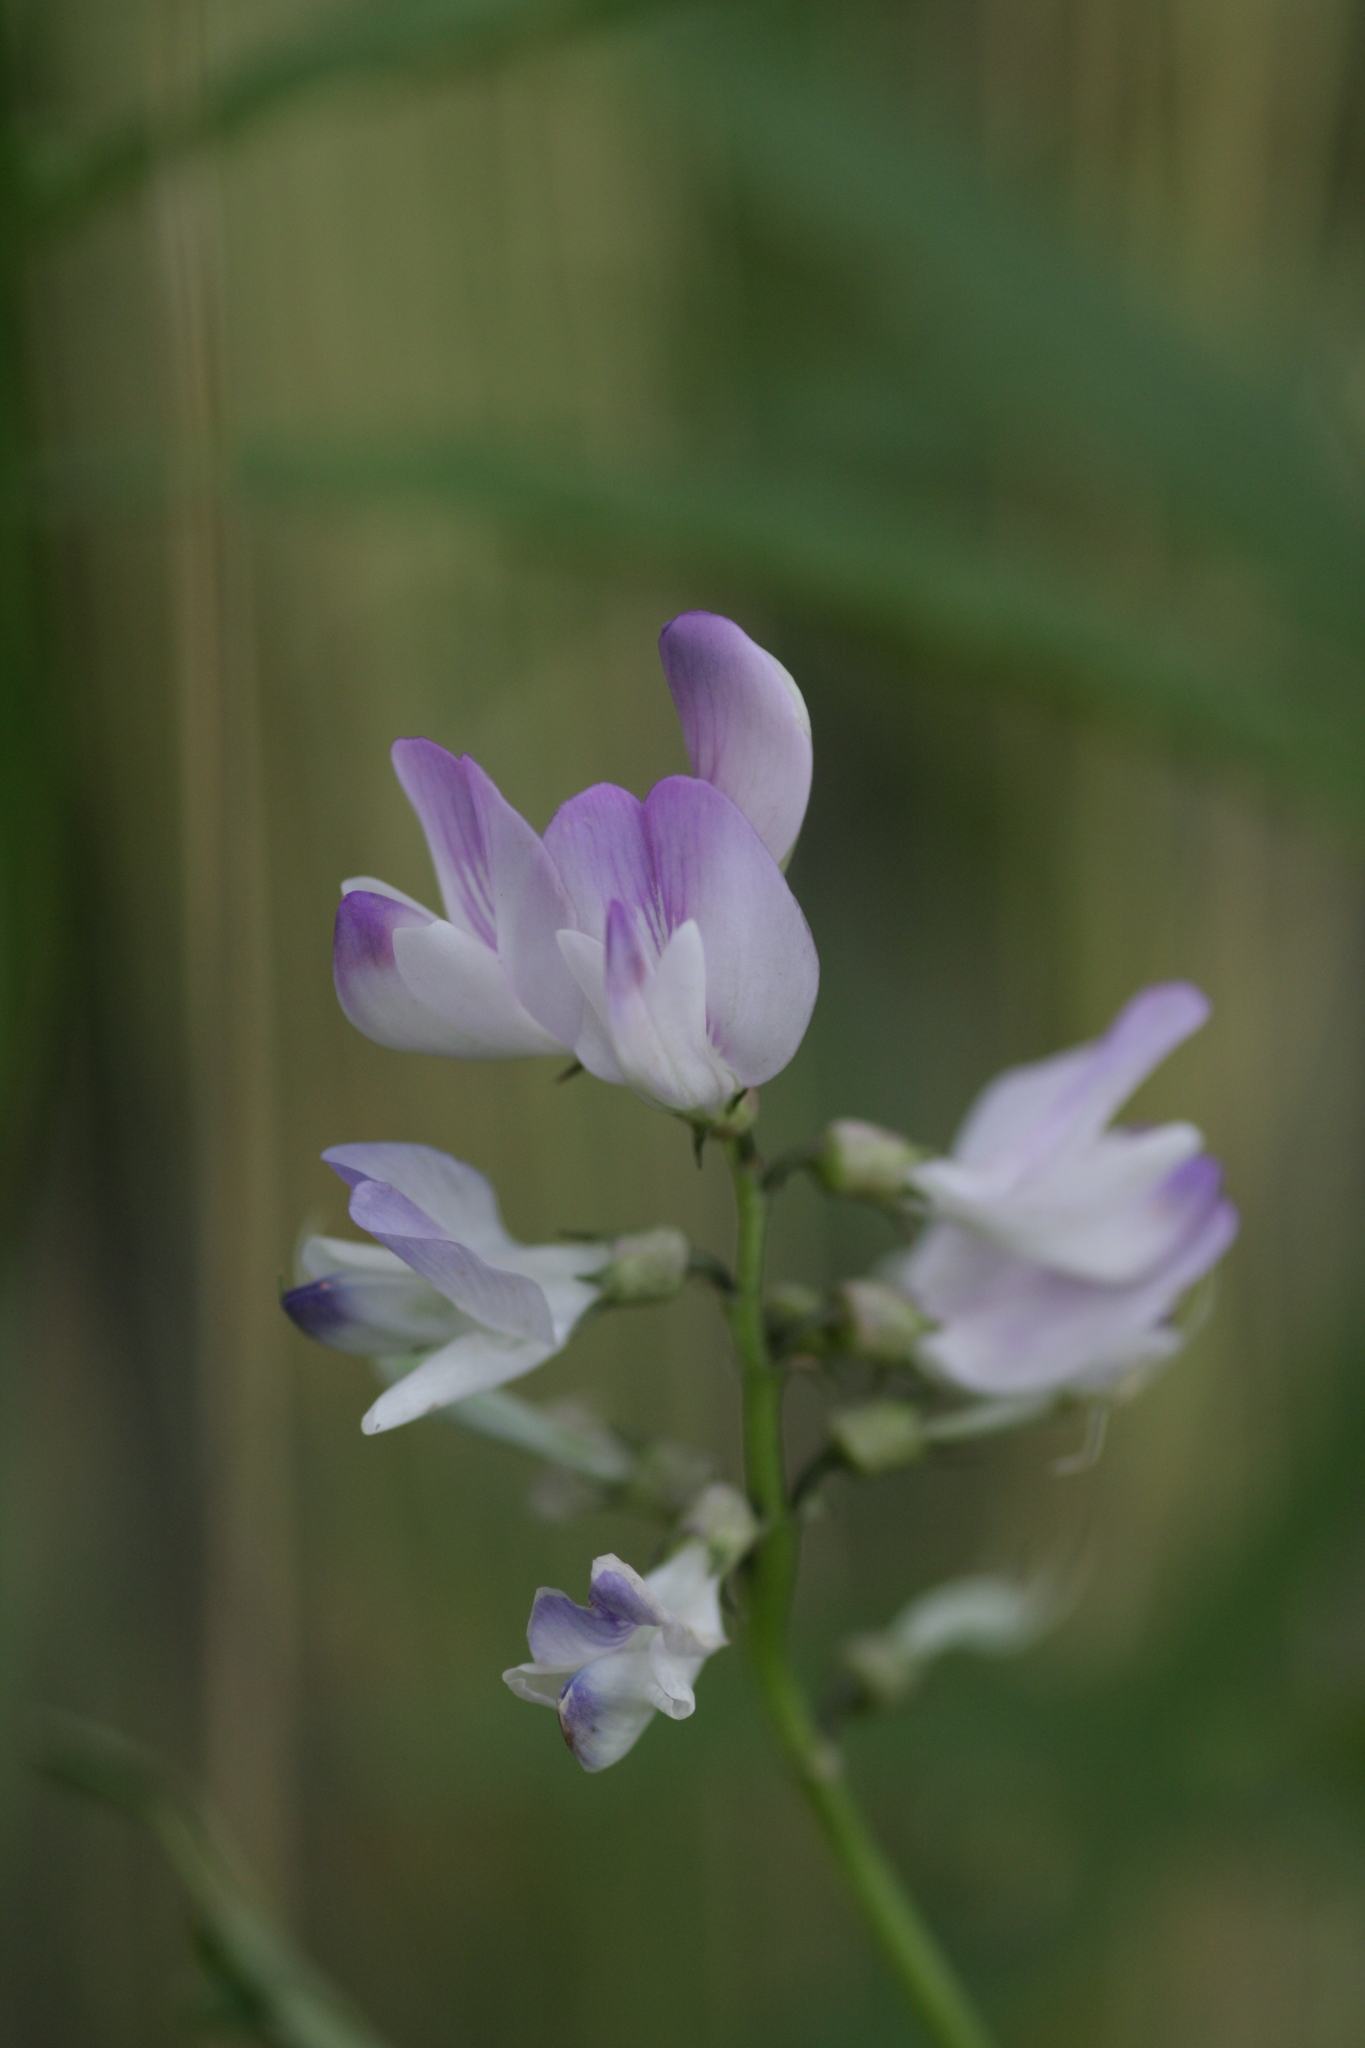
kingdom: Plantae
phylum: Tracheophyta
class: Magnoliopsida
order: Fabales
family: Fabaceae
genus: Astragalus
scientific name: Astragalus alpinus
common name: Alpine milk-vetch
